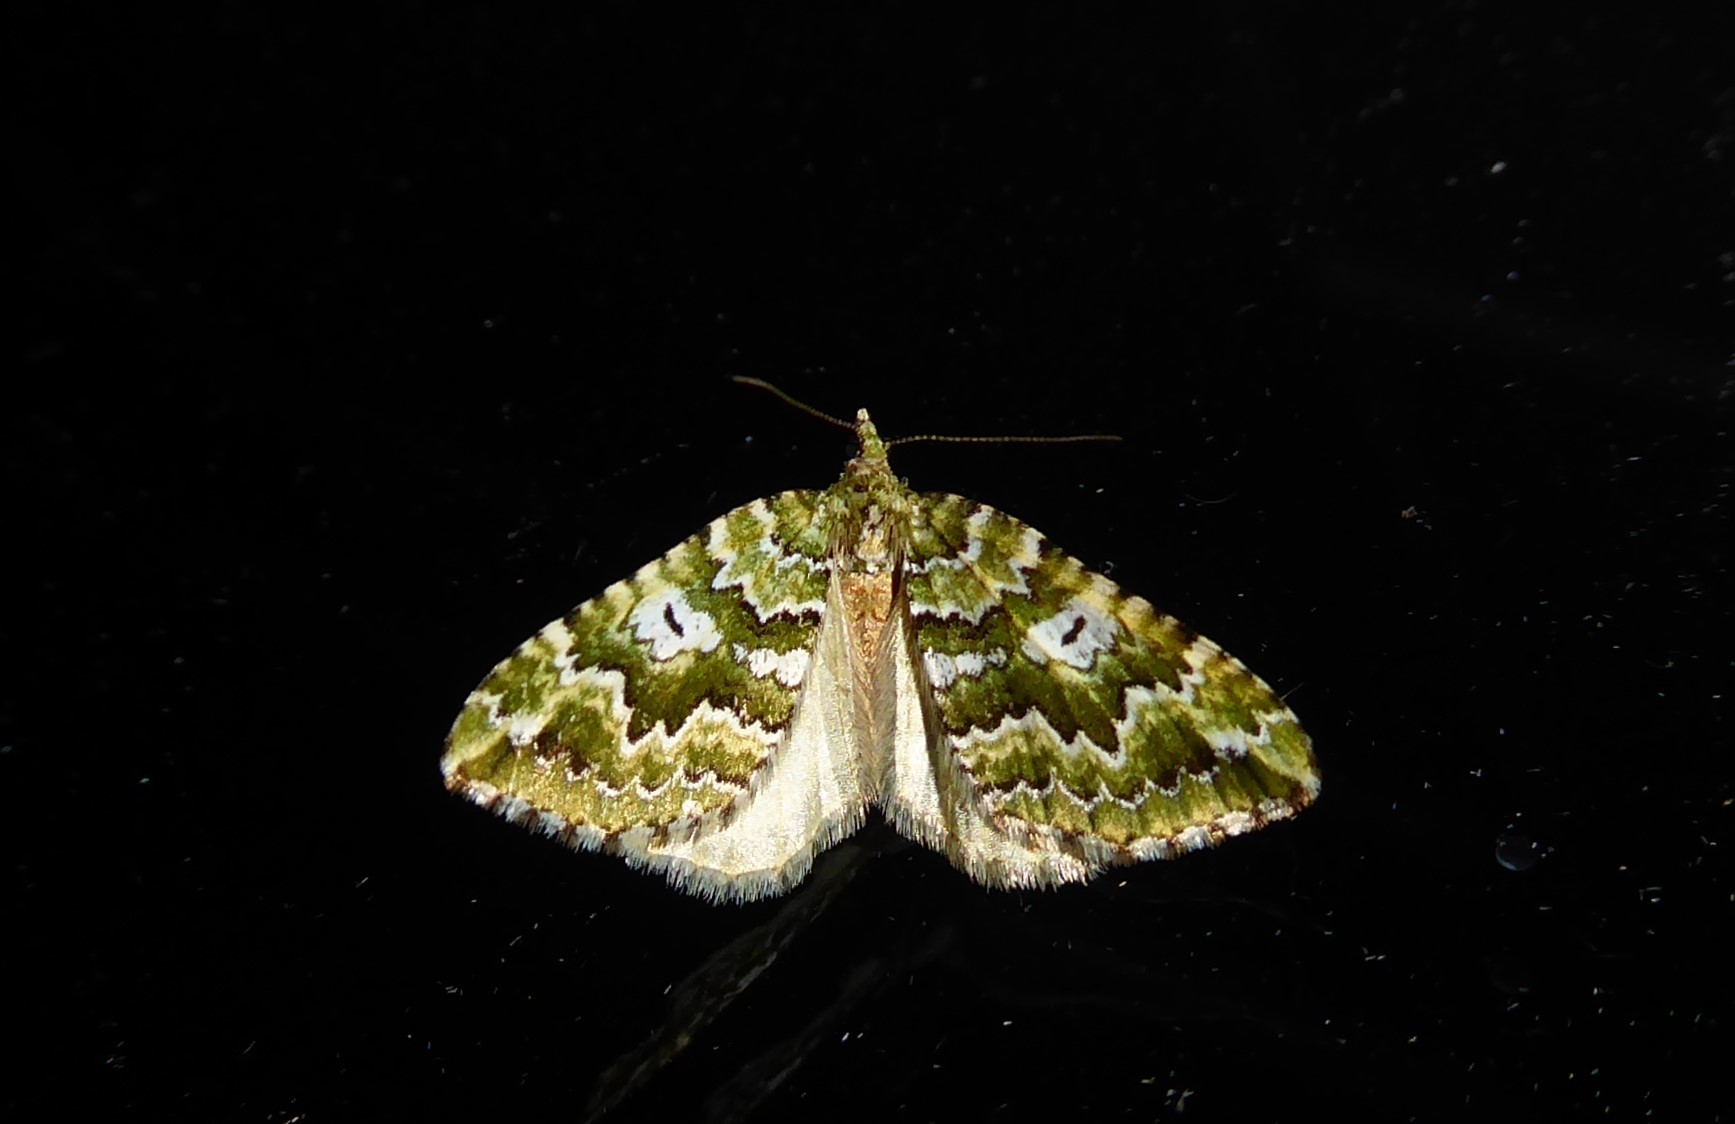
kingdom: Animalia
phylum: Arthropoda
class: Insecta
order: Lepidoptera
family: Geometridae
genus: Asaphodes
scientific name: Asaphodes beata
